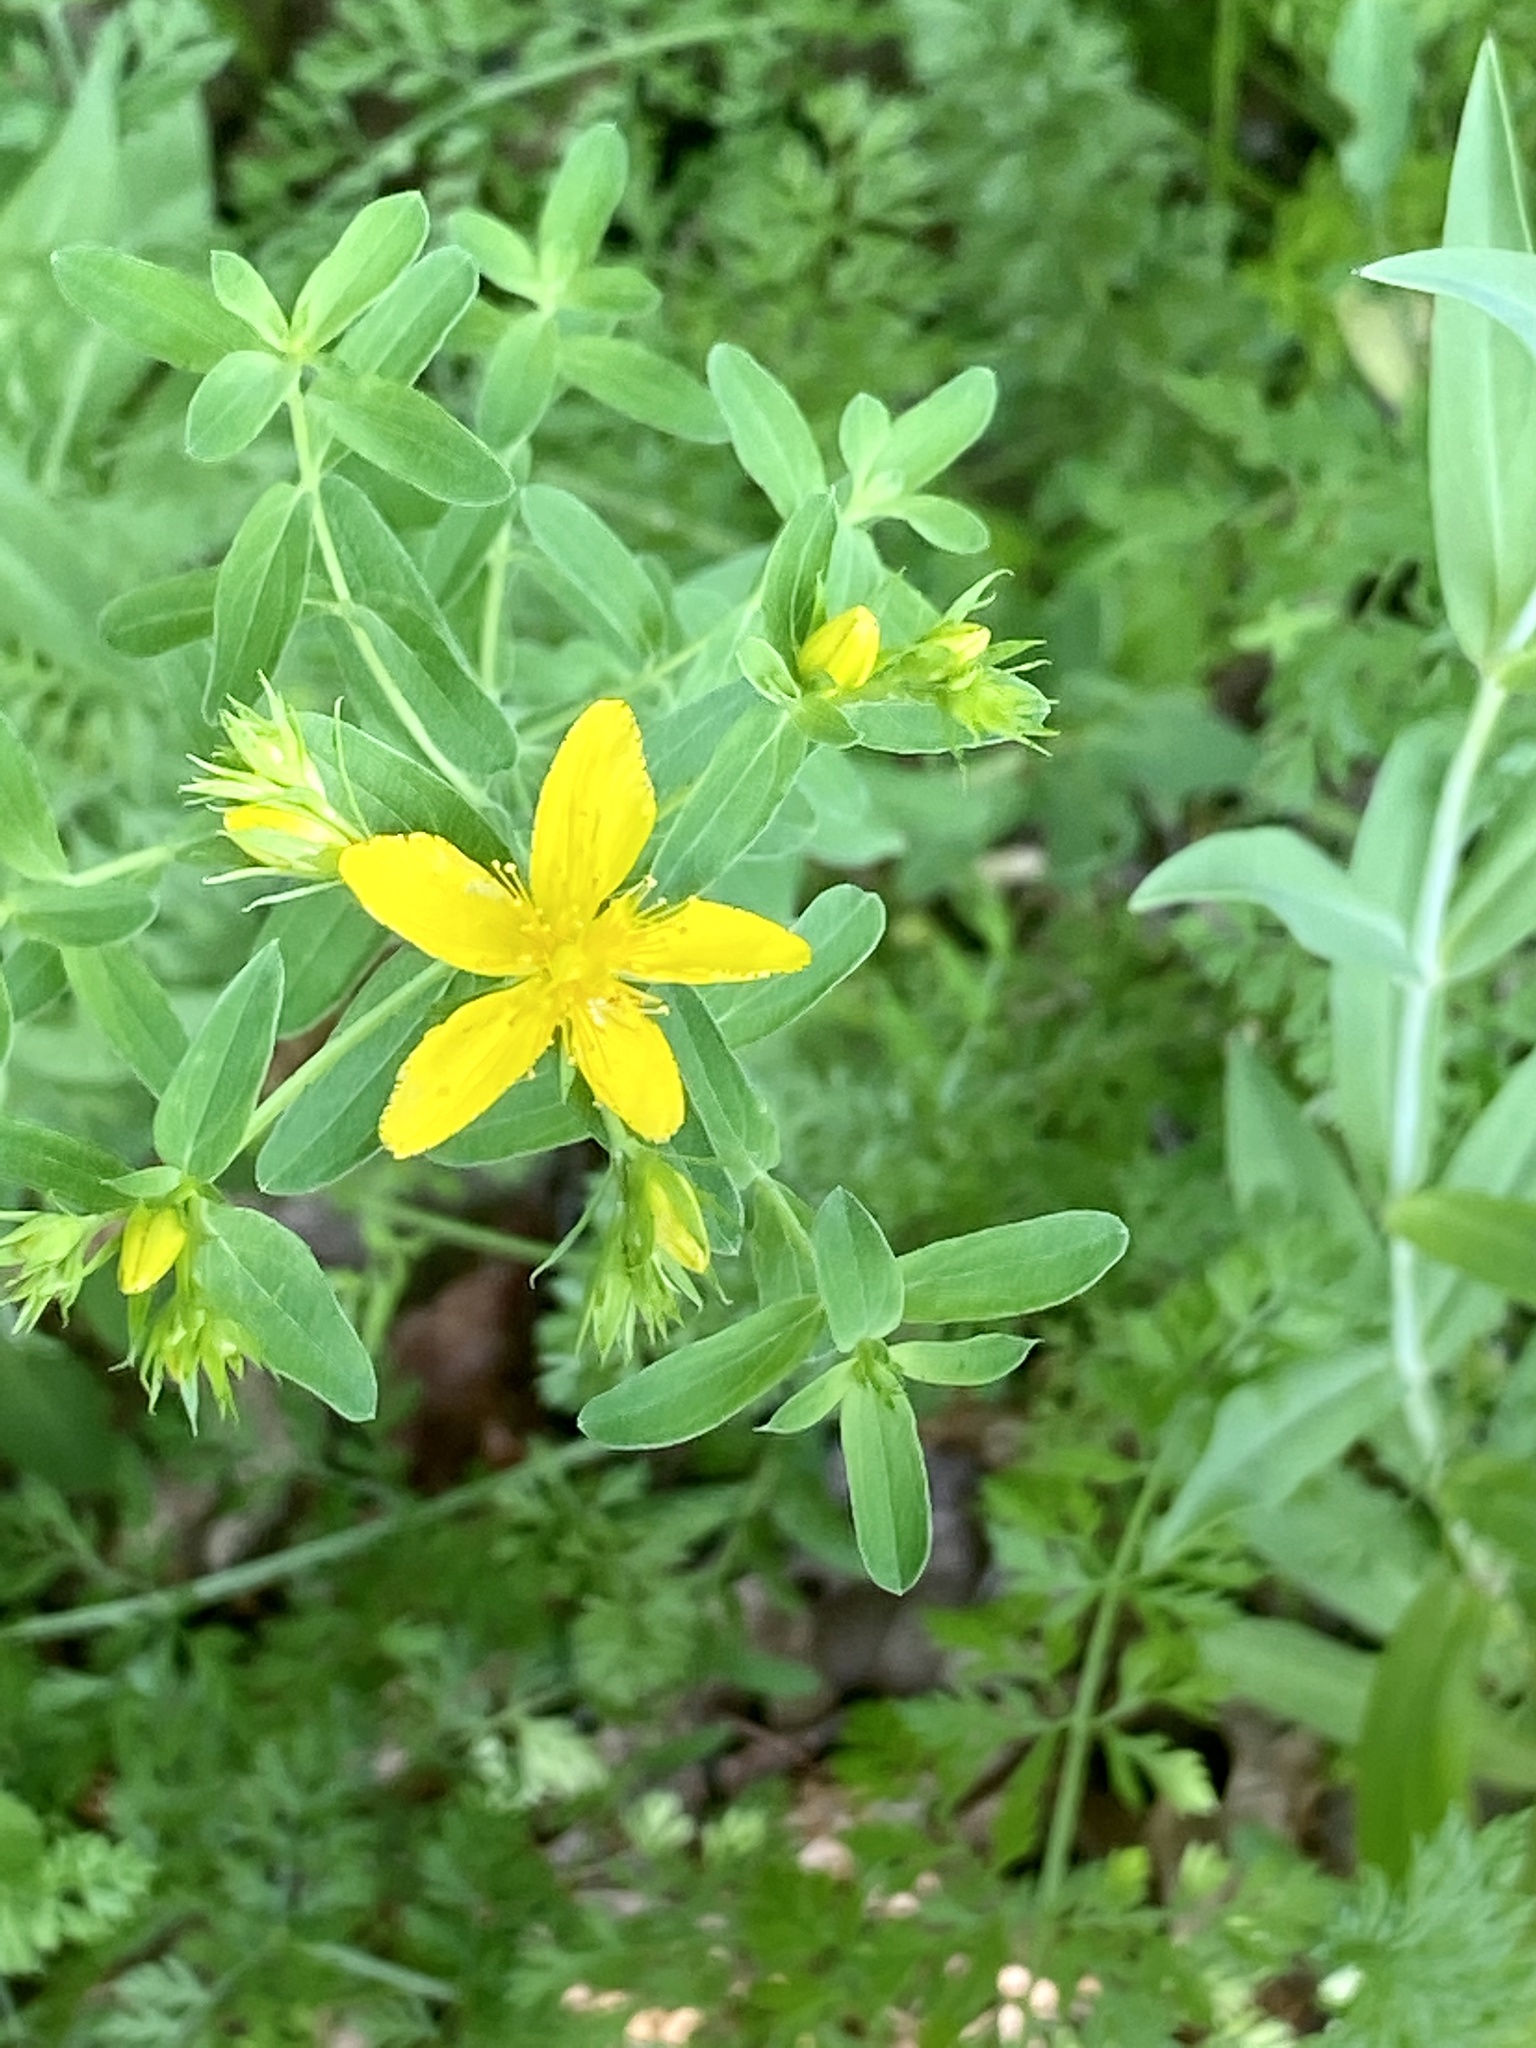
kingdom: Plantae
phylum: Tracheophyta
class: Magnoliopsida
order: Malpighiales
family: Hypericaceae
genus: Hypericum
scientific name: Hypericum perforatum
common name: Common st. johnswort
